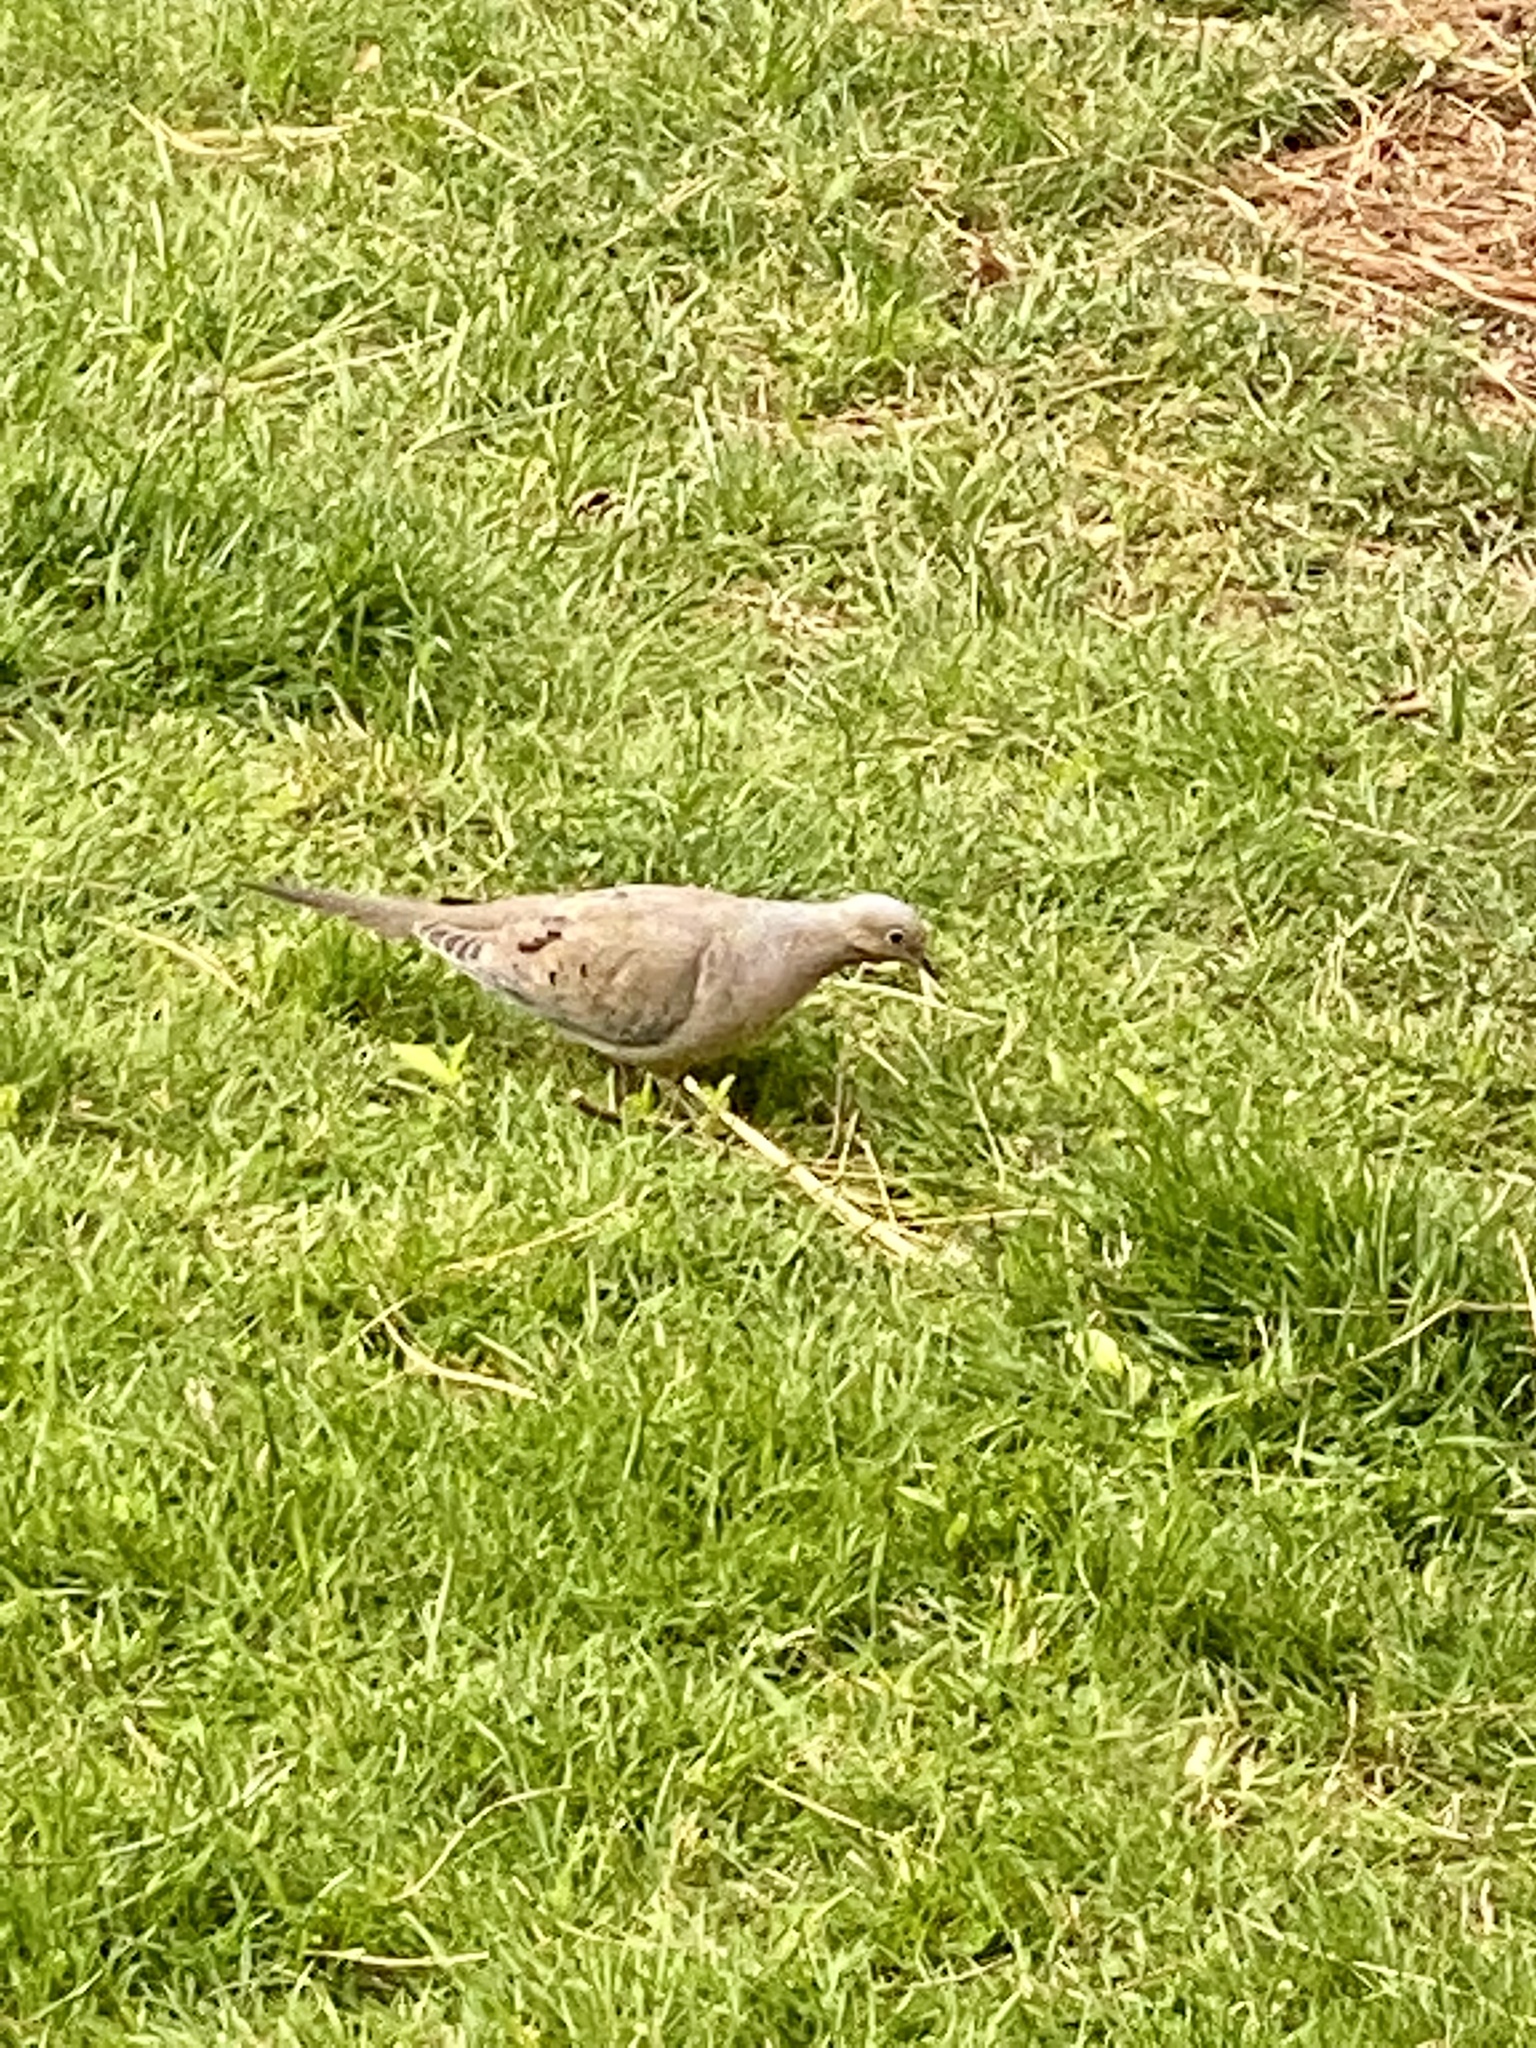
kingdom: Animalia
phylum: Chordata
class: Aves
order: Columbiformes
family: Columbidae
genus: Zenaida
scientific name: Zenaida macroura
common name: Mourning dove
